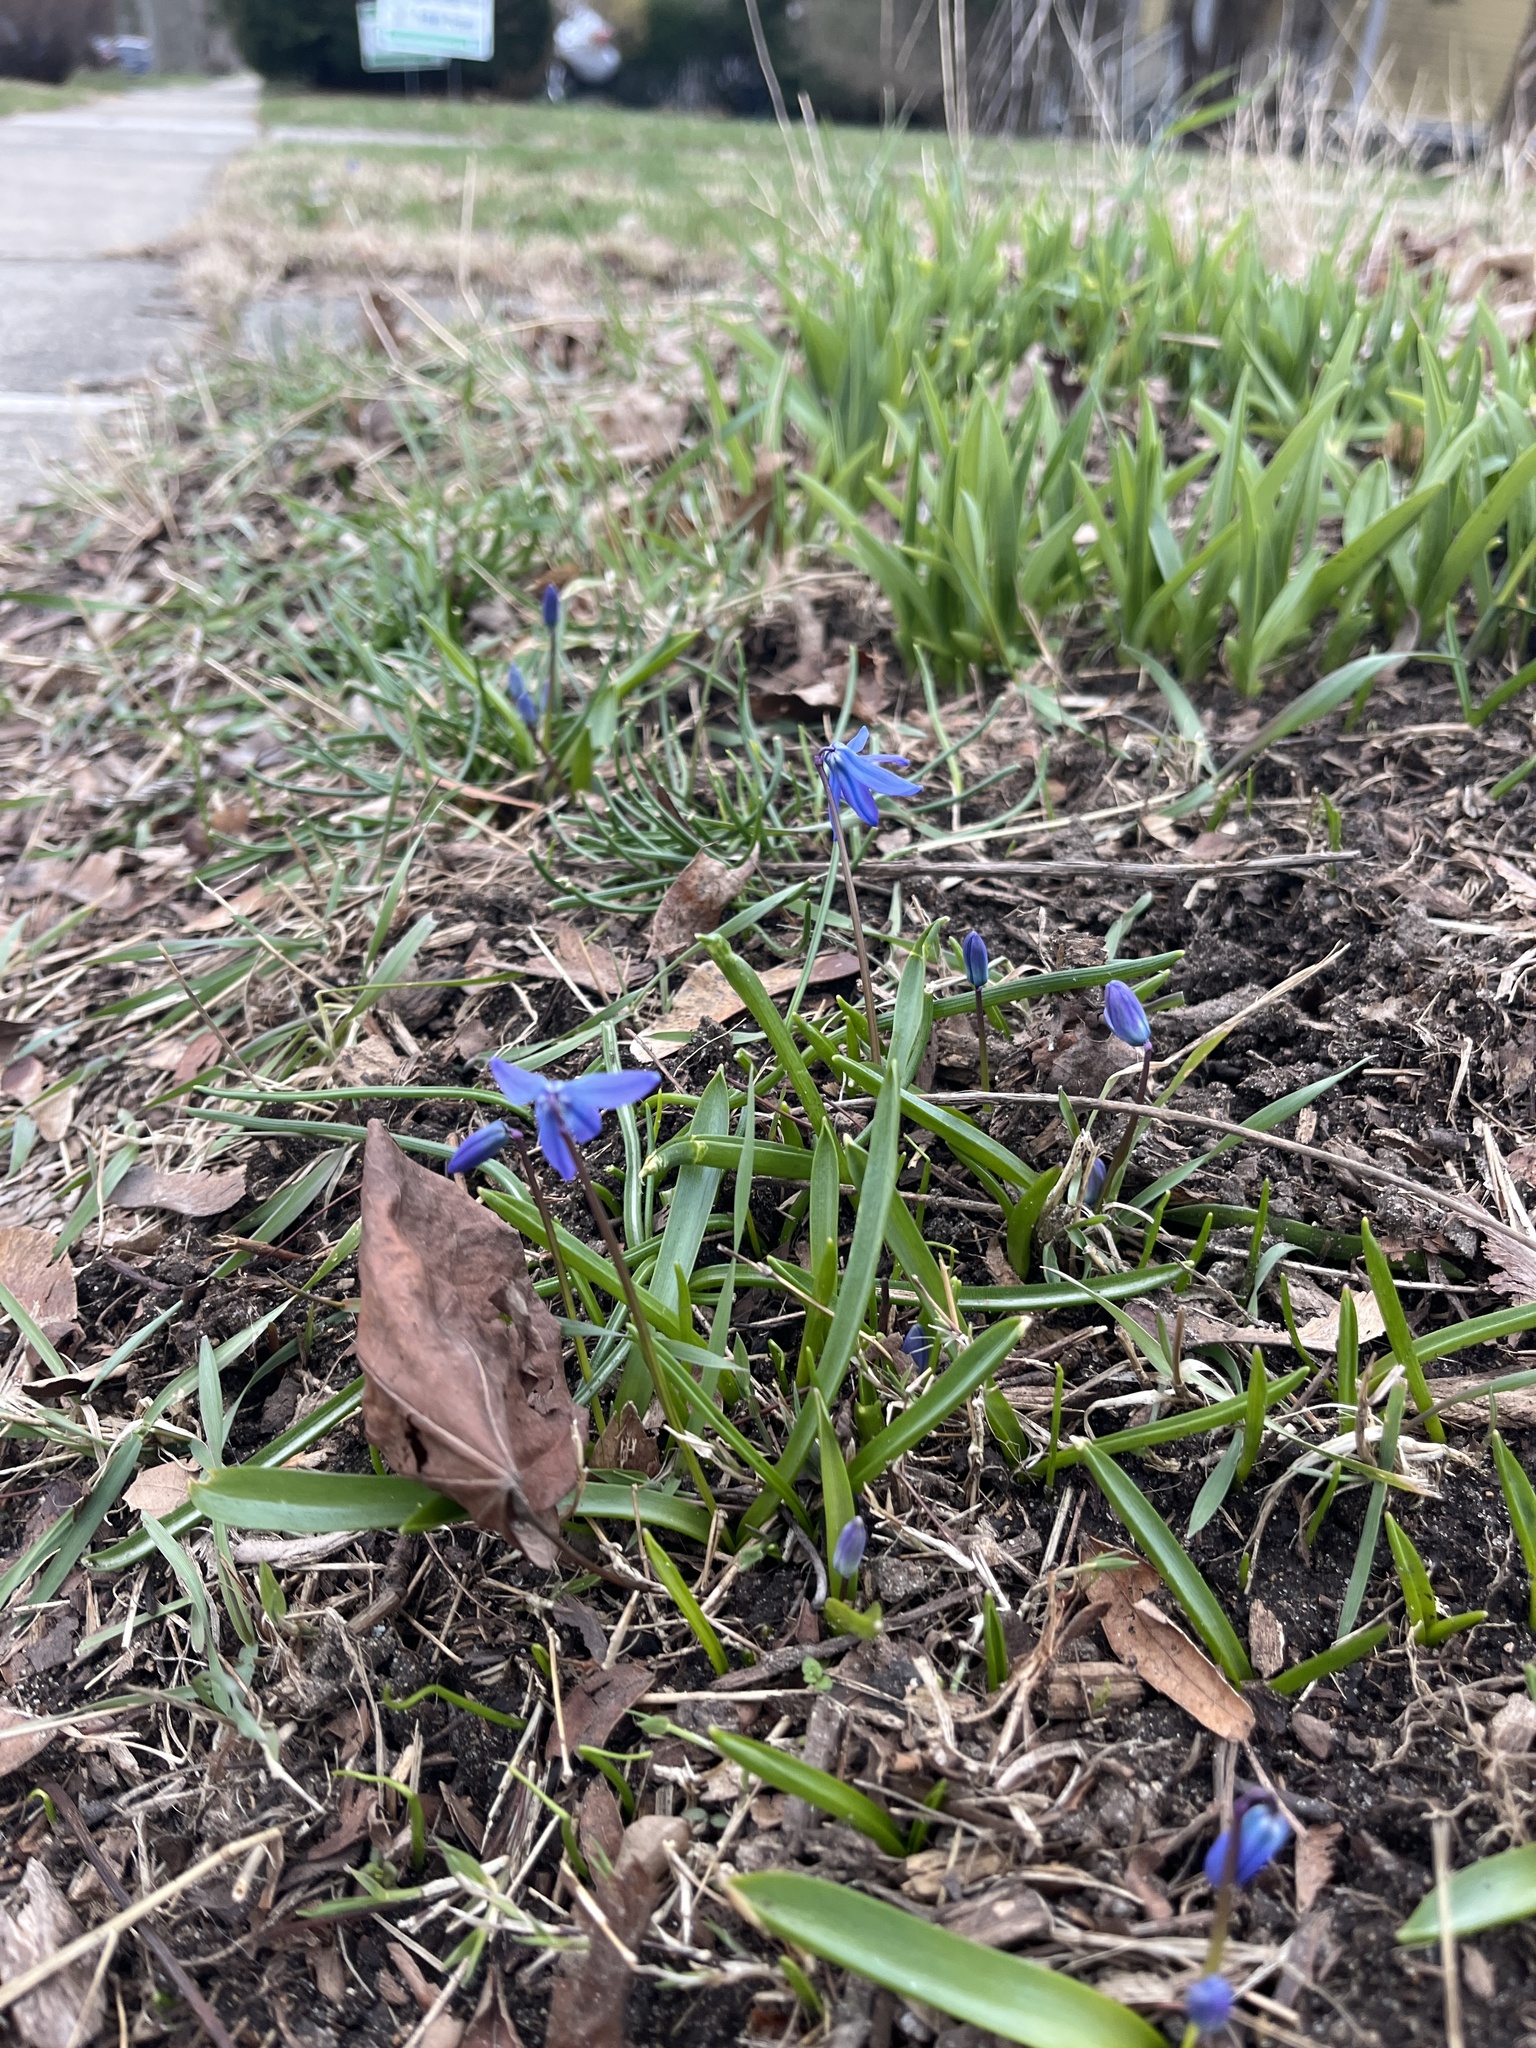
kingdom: Plantae
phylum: Tracheophyta
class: Liliopsida
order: Asparagales
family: Asparagaceae
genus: Scilla
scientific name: Scilla siberica
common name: Siberian squill
